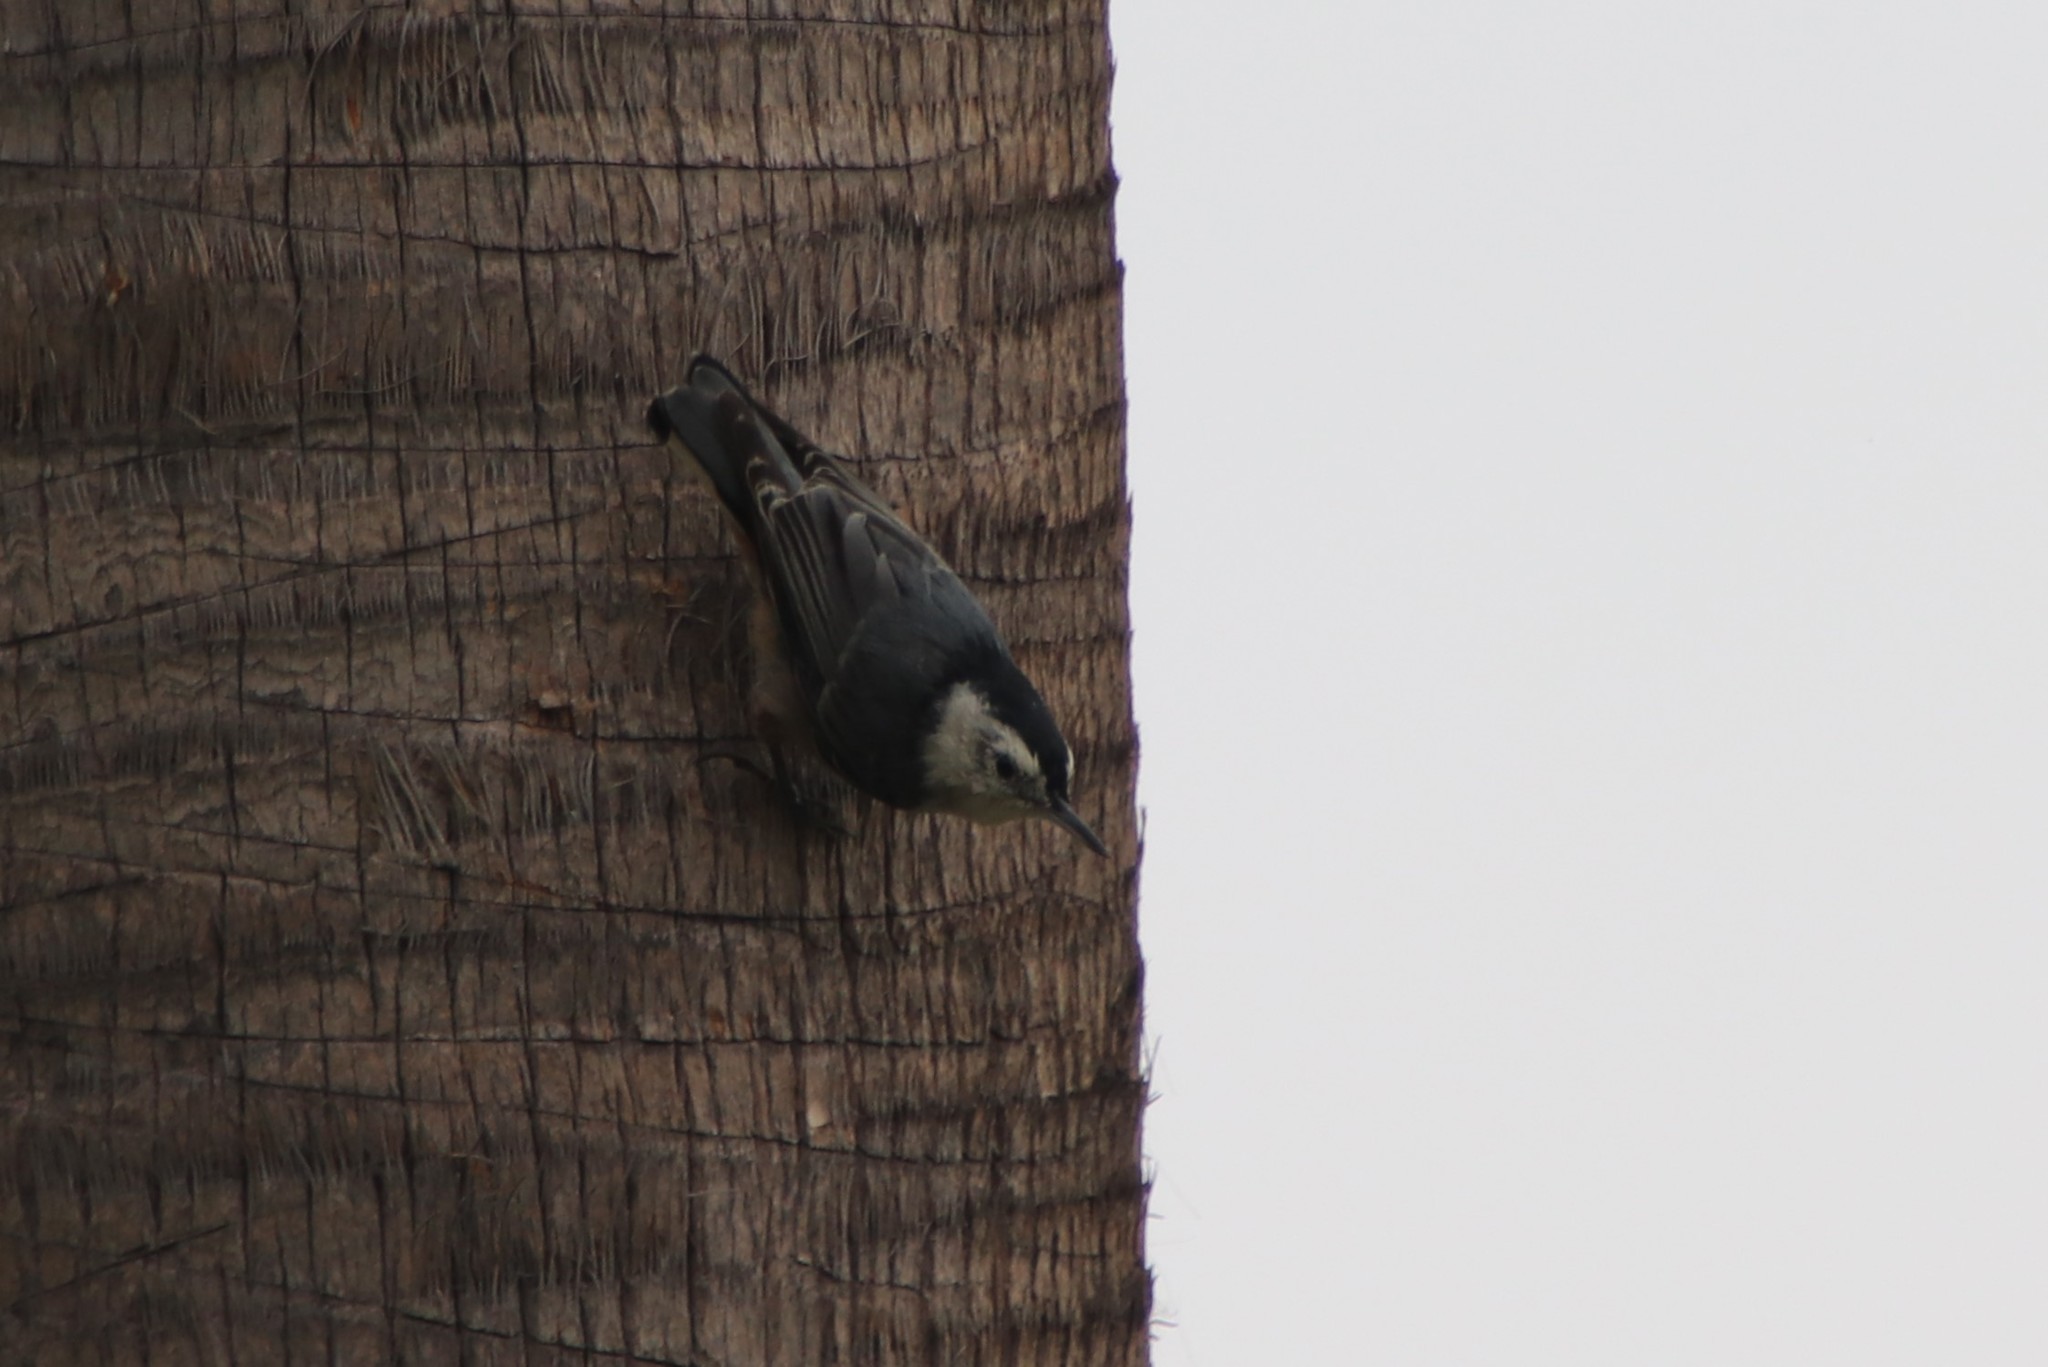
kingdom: Animalia
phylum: Chordata
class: Aves
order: Passeriformes
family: Sittidae
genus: Sitta
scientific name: Sitta carolinensis
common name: White-breasted nuthatch
